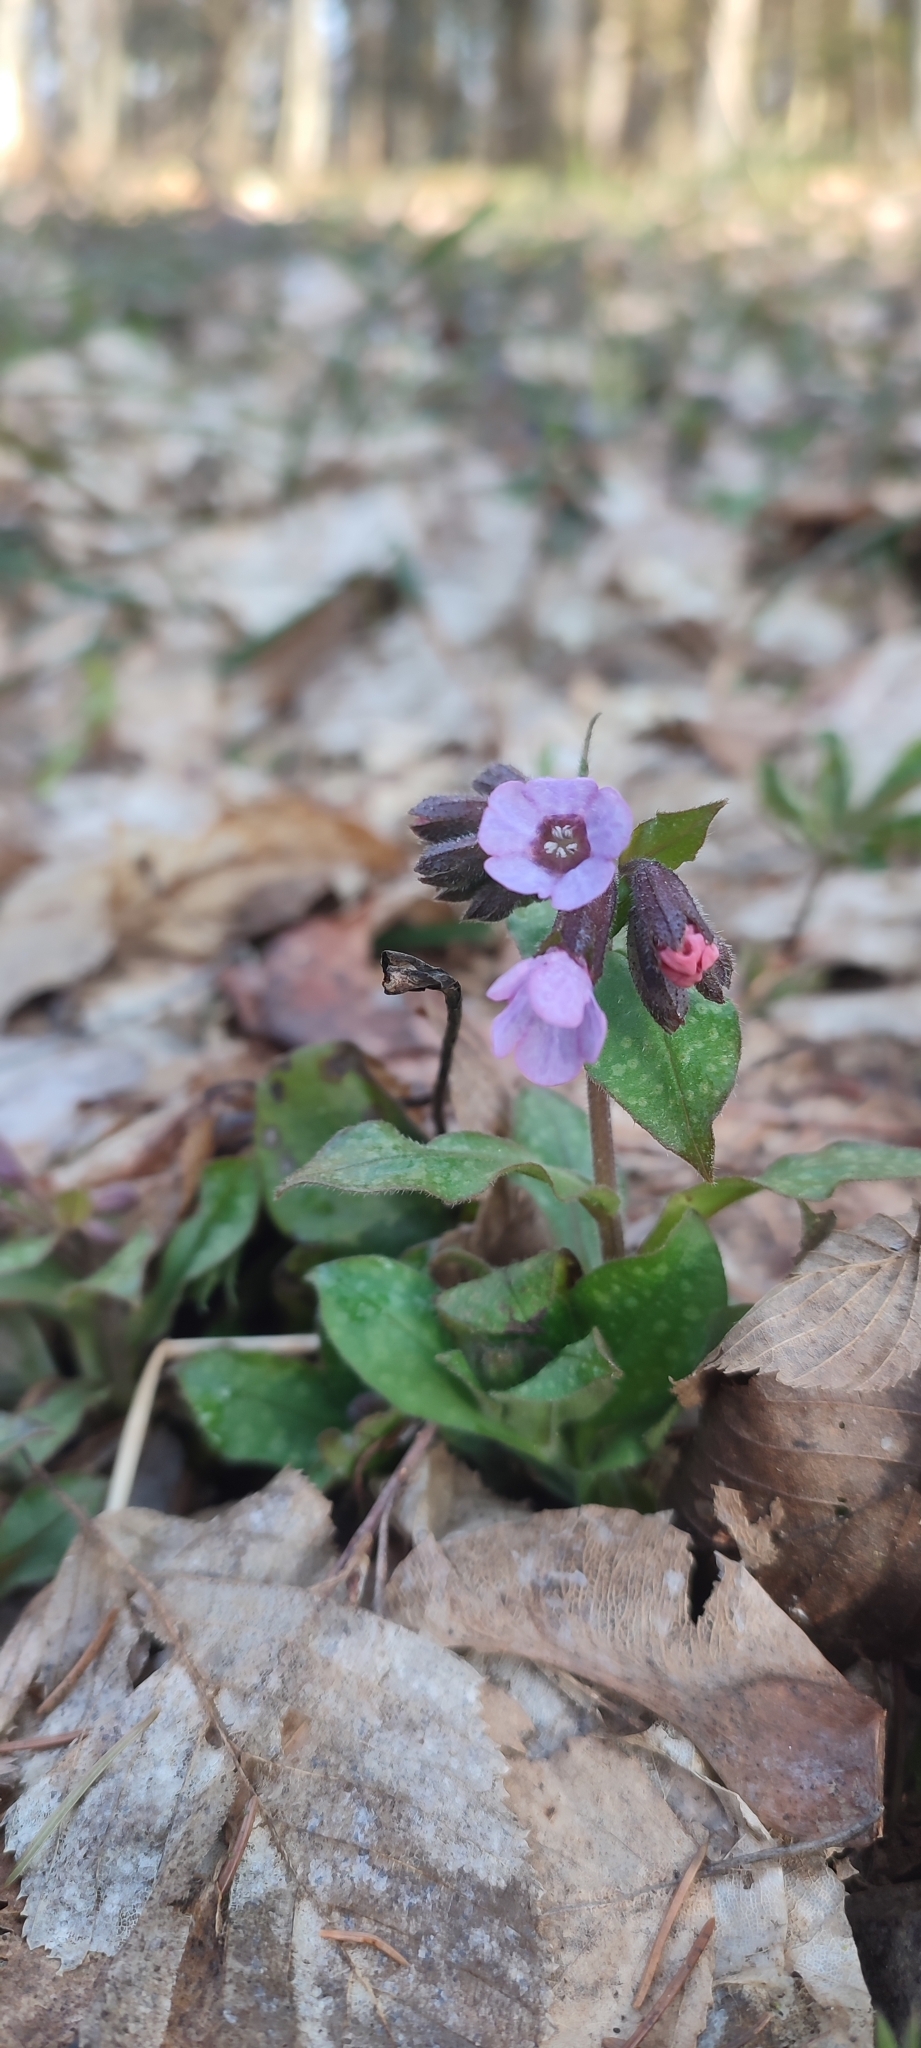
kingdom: Plantae
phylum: Tracheophyta
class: Magnoliopsida
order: Boraginales
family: Boraginaceae
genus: Pulmonaria
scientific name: Pulmonaria obscura
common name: Suffolk lungwort
